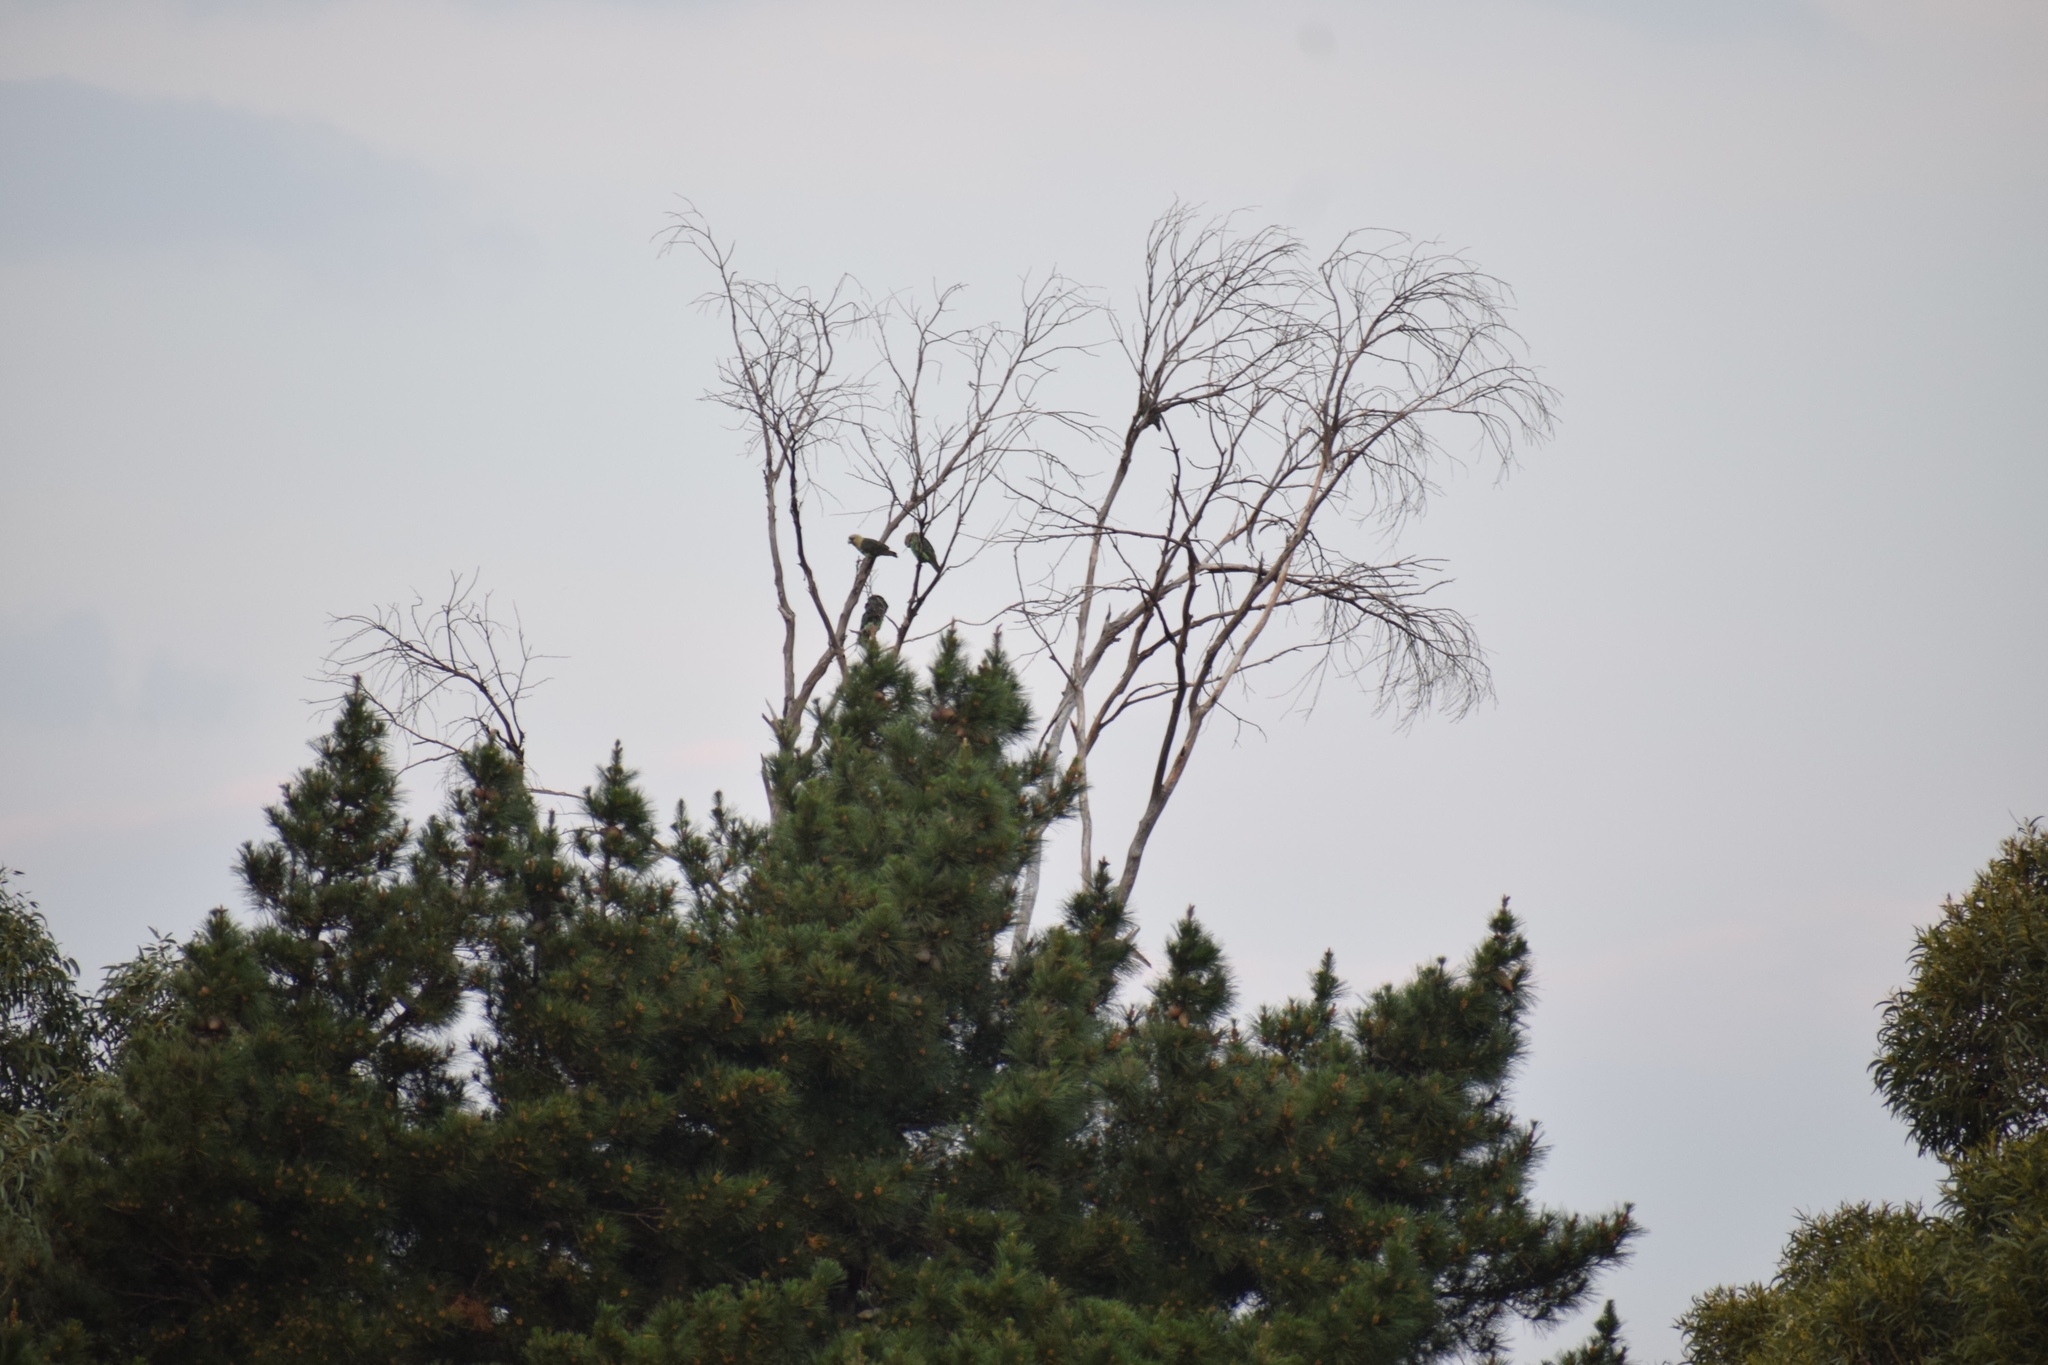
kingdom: Animalia
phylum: Chordata
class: Aves
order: Psittaciformes
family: Psittacidae
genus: Poicephalus
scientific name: Poicephalus robustus
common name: Cape parrot
